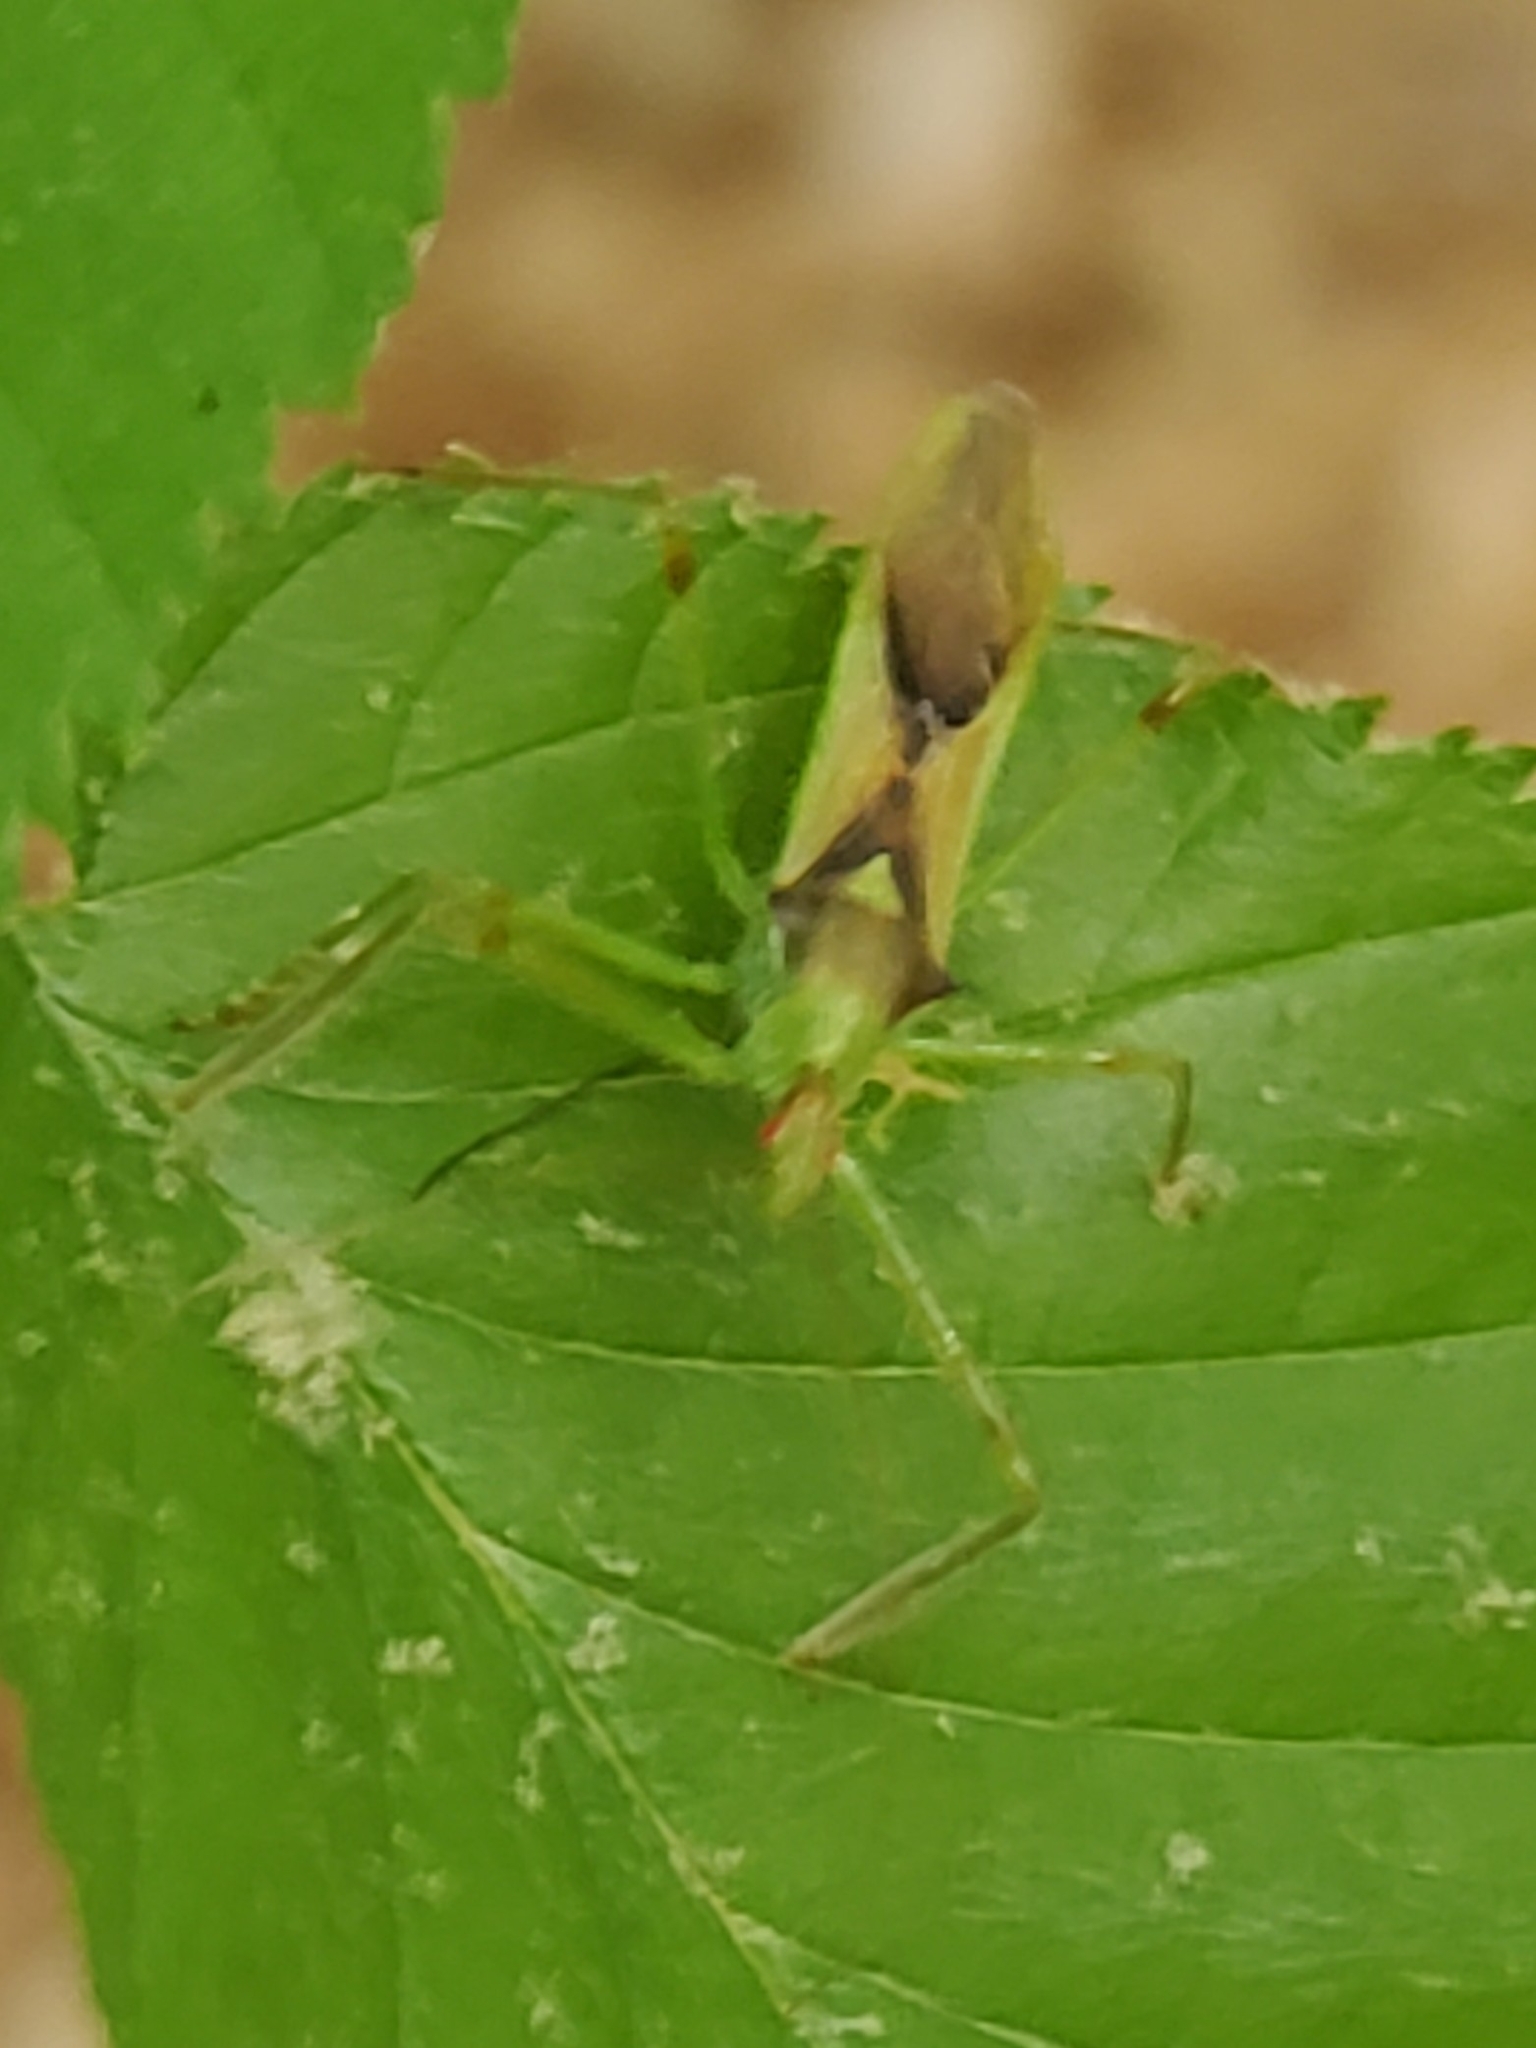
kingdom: Animalia
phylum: Arthropoda
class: Insecta
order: Hemiptera
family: Reduviidae
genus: Zelus
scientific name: Zelus luridus
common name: Pale green assassin bug
